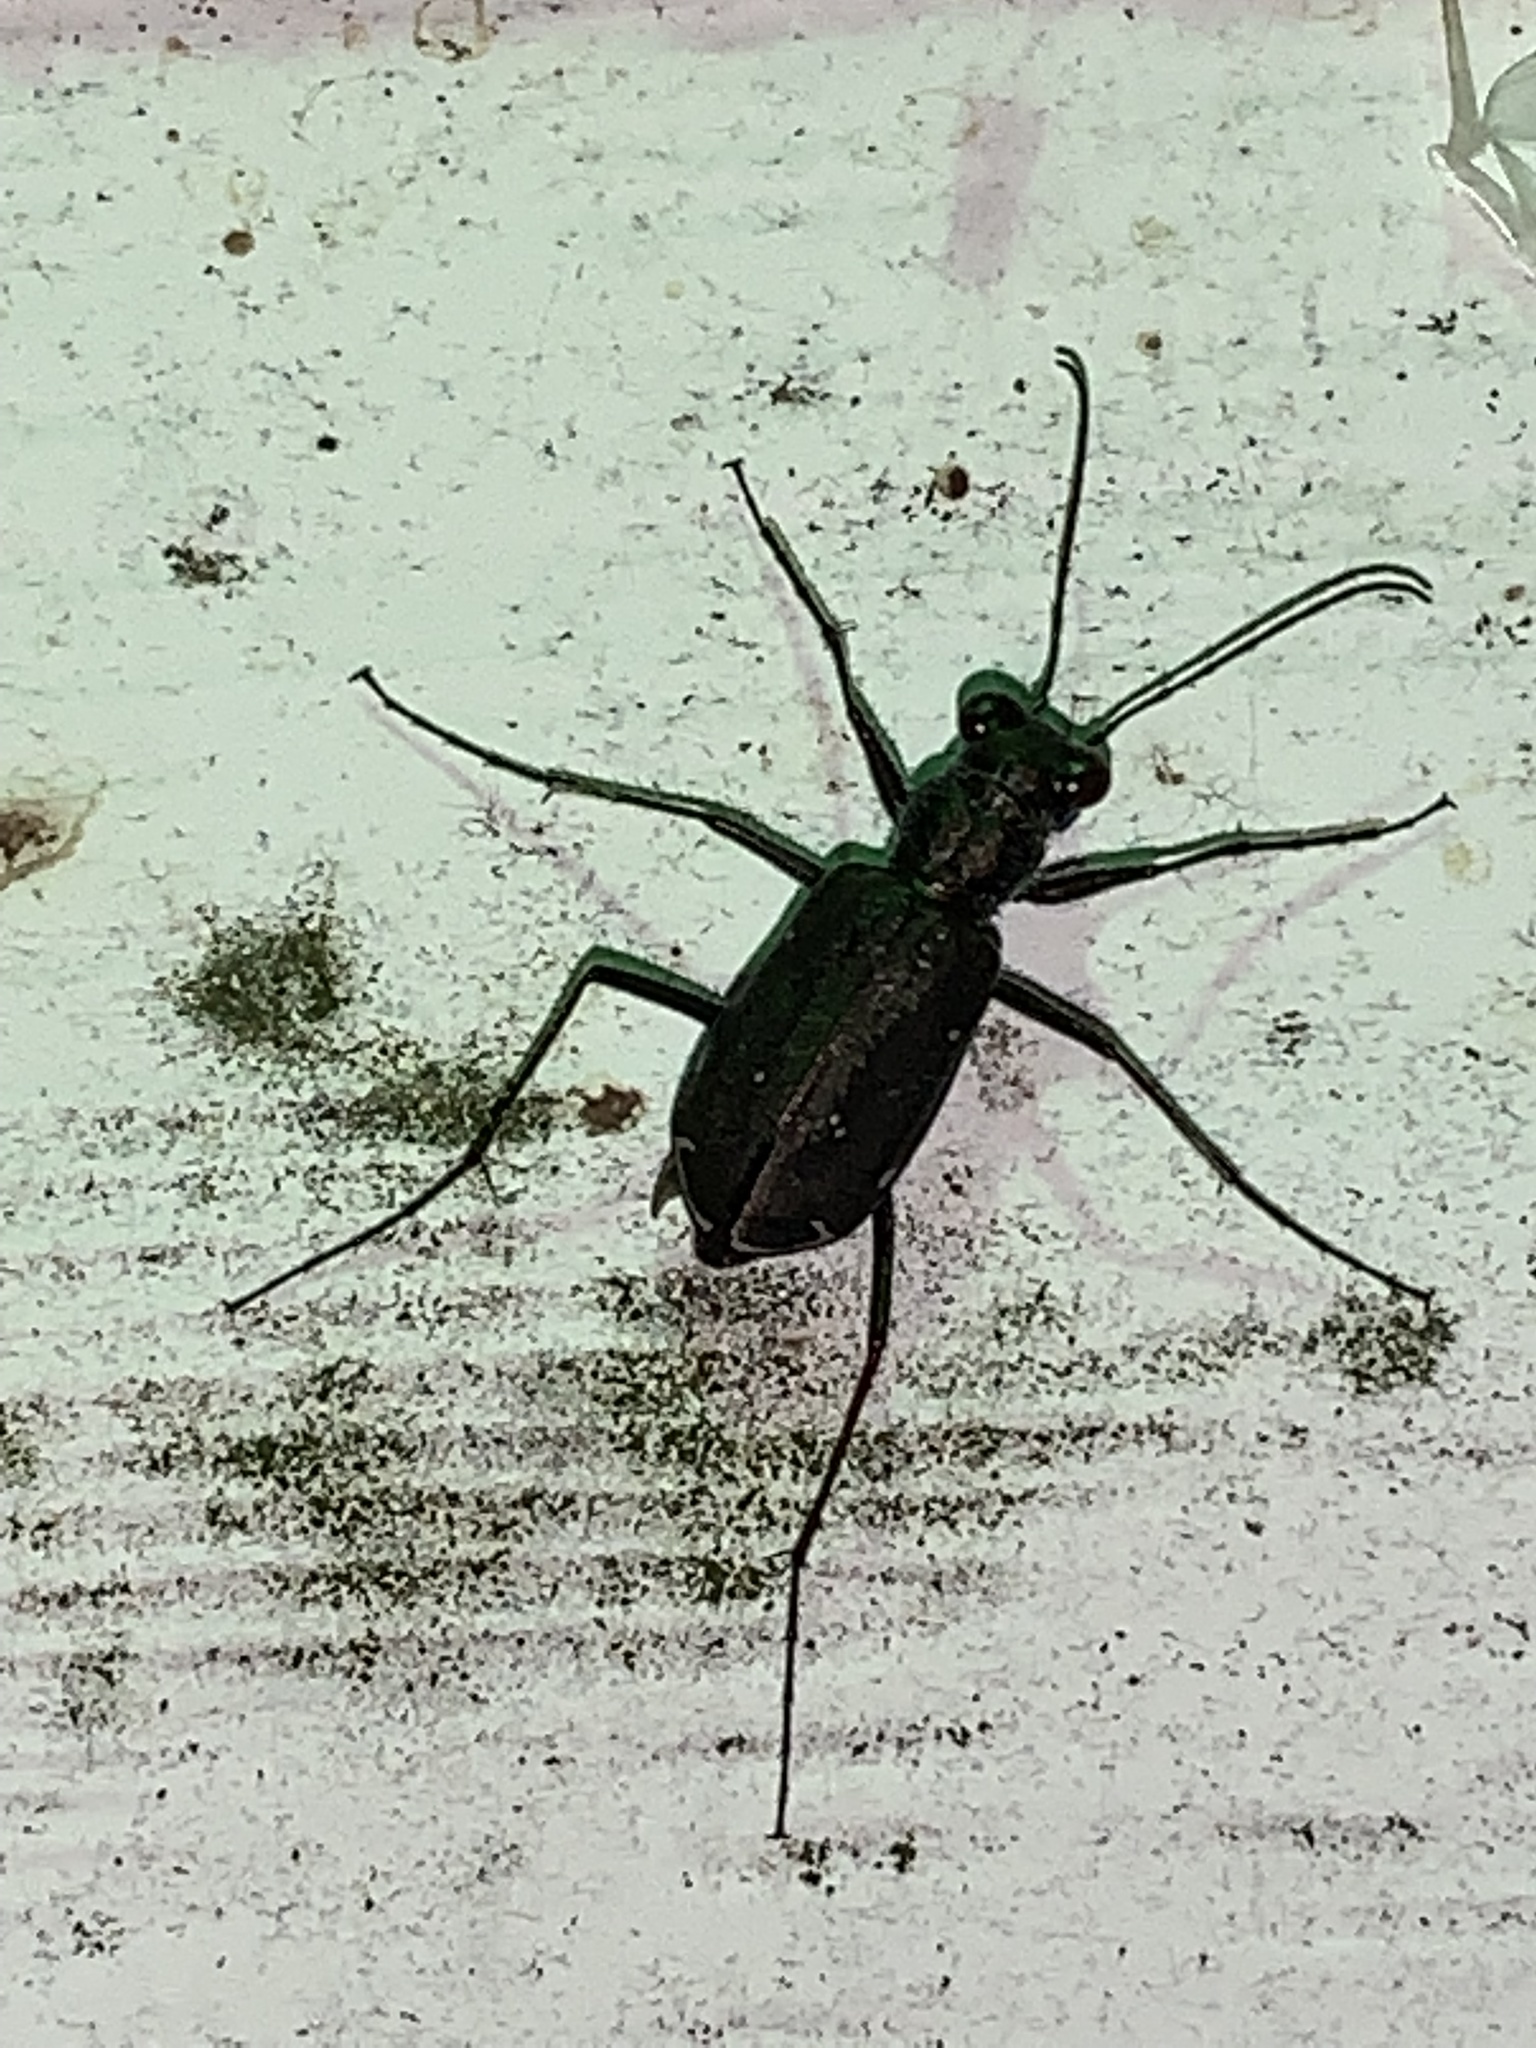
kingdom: Animalia
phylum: Arthropoda
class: Insecta
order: Coleoptera
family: Carabidae
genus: Cicindela
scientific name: Cicindela punctulata
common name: Punctured tiger beetle
